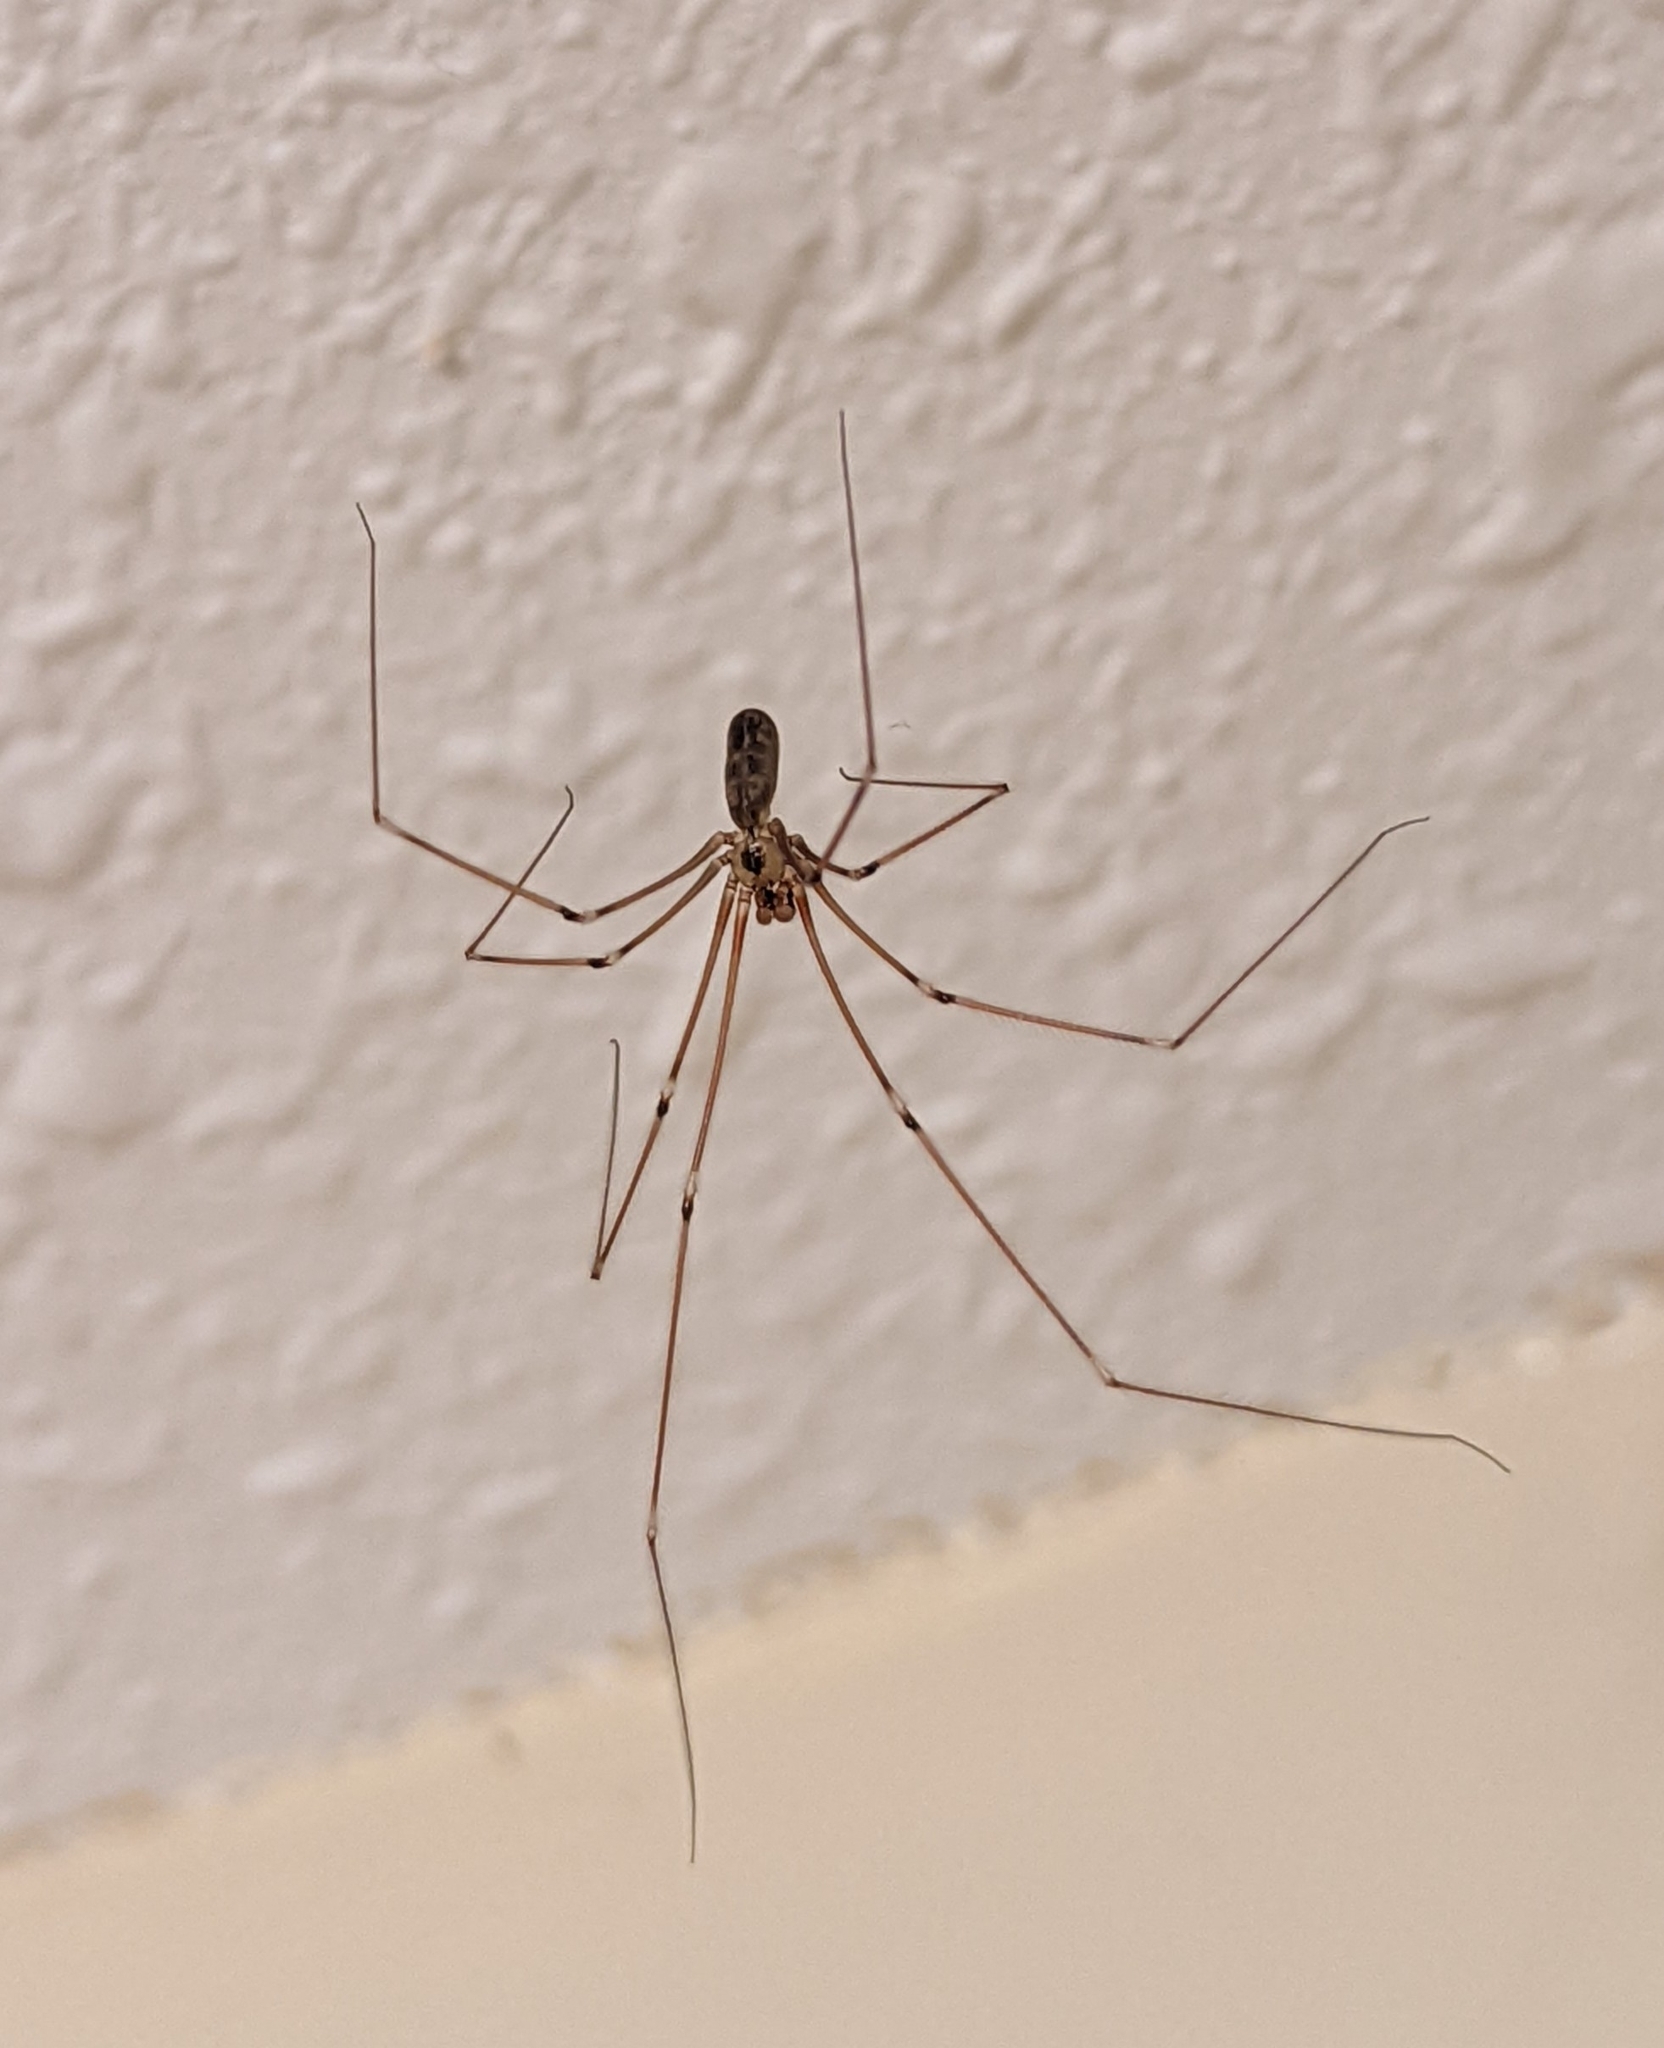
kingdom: Animalia
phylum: Arthropoda
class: Arachnida
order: Araneae
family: Pholcidae
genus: Pholcus
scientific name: Pholcus phalangioides
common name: Longbodied cellar spider
